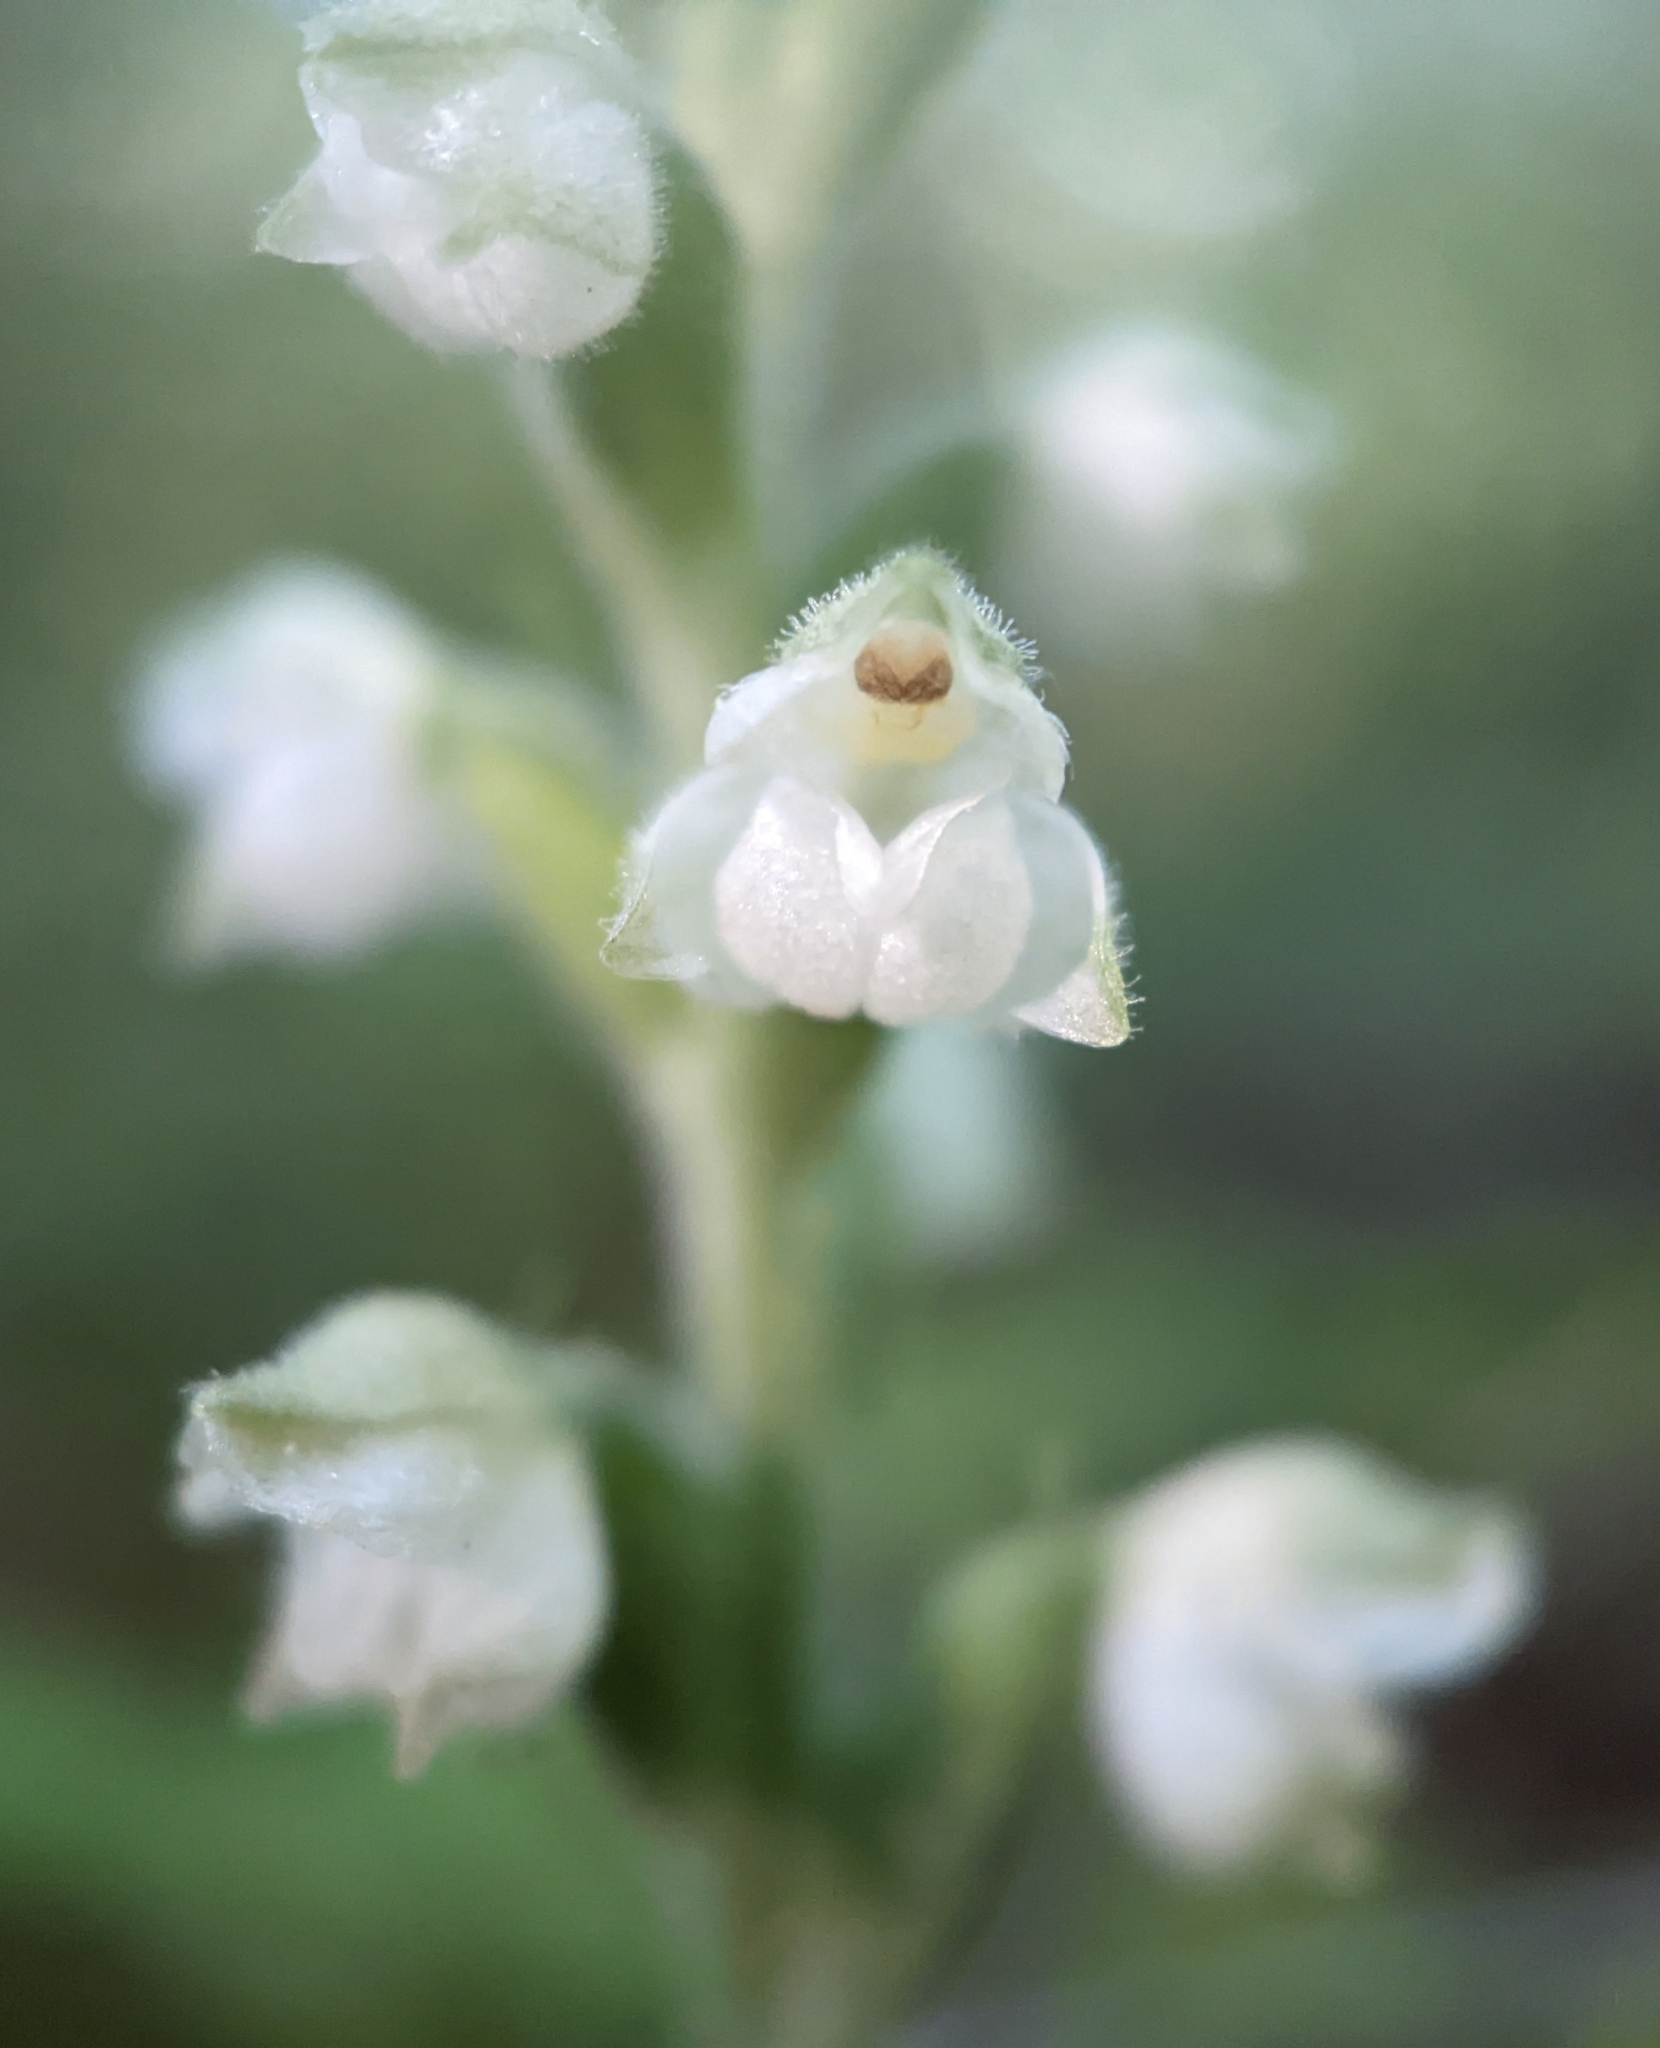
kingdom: Plantae
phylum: Tracheophyta
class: Liliopsida
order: Asparagales
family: Orchidaceae
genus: Goodyera
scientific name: Goodyera pubescens
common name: Downy rattlesnake-plantain
